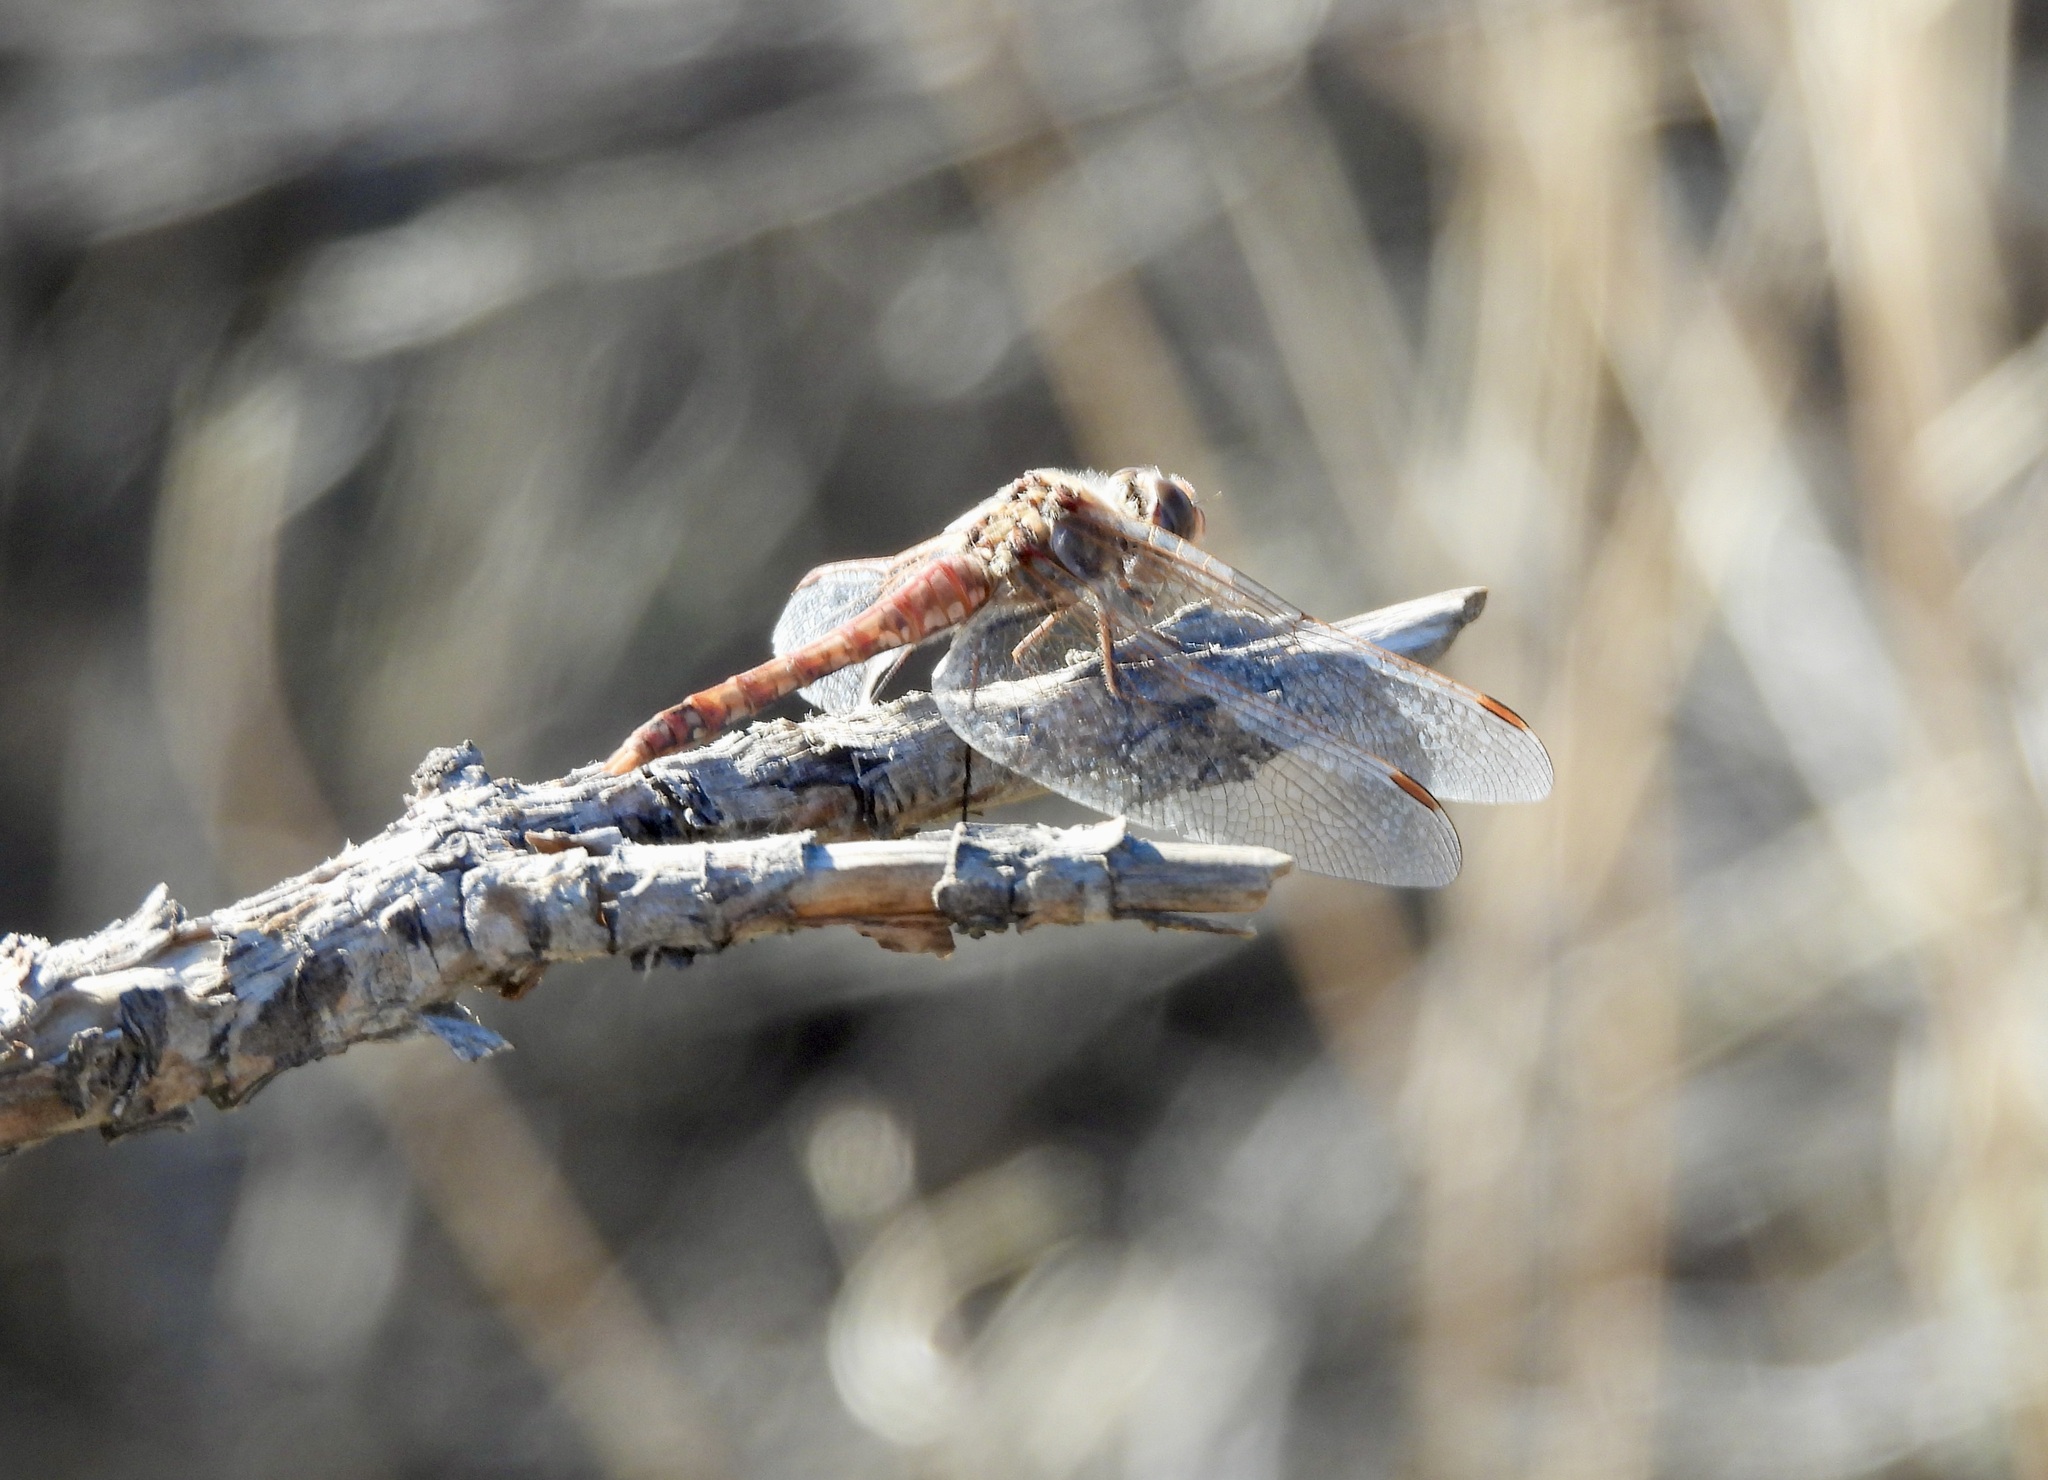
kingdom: Animalia
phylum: Arthropoda
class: Insecta
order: Odonata
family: Libellulidae
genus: Sympetrum
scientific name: Sympetrum corruptum
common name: Variegated meadowhawk
